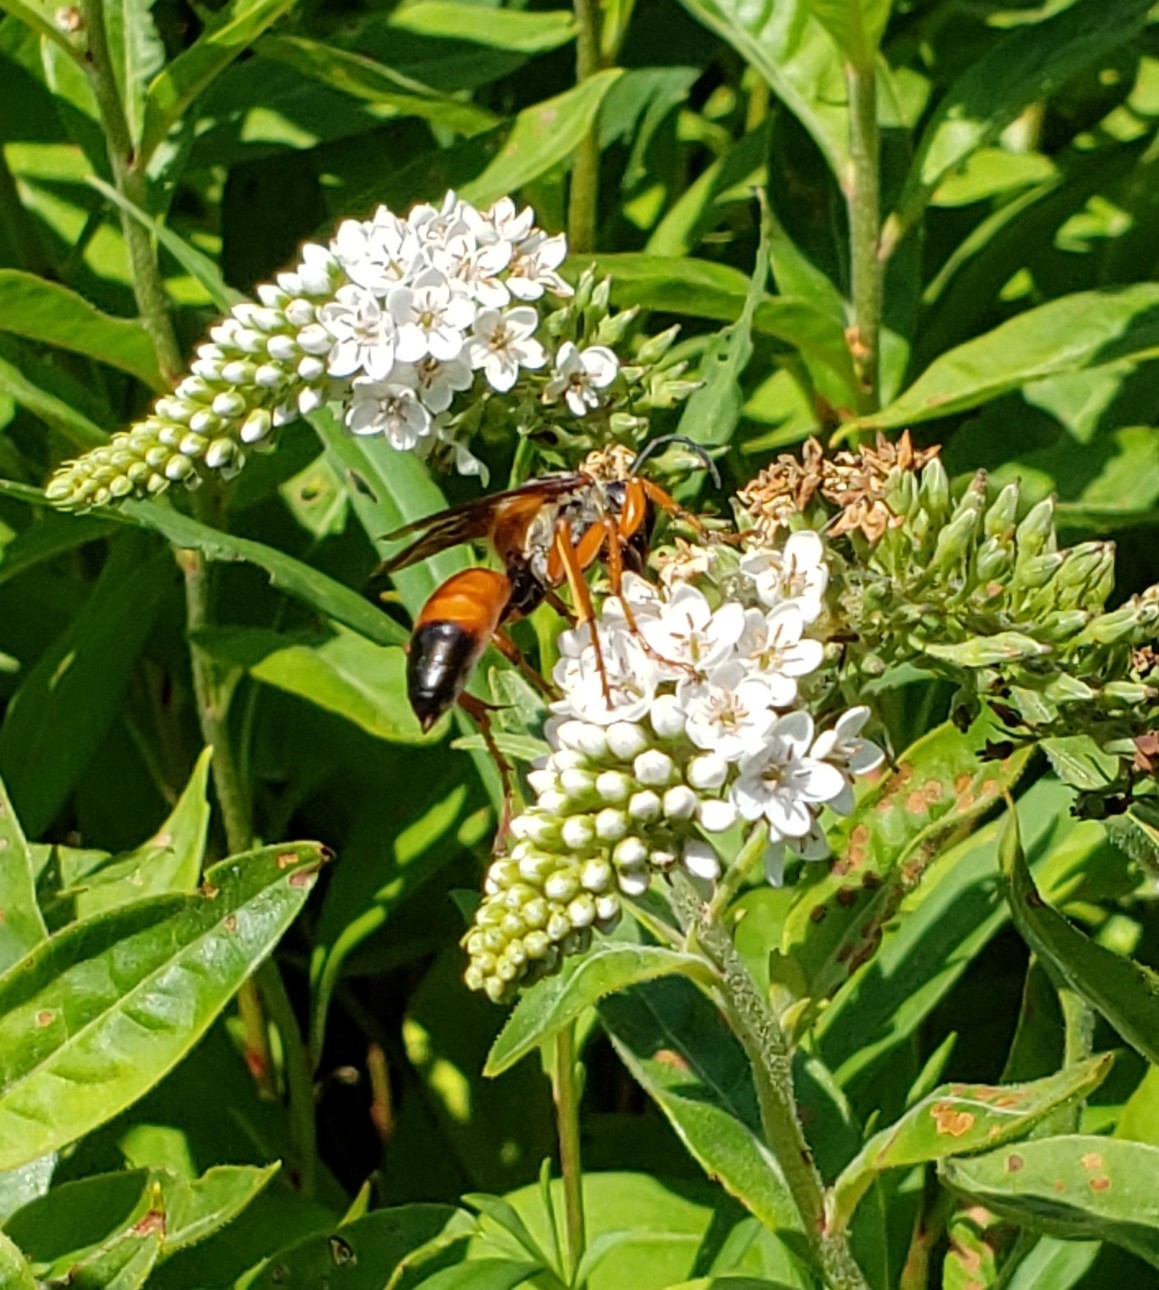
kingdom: Animalia
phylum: Arthropoda
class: Insecta
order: Hymenoptera
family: Sphecidae
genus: Sphex
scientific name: Sphex ichneumoneus
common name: Great golden digger wasp
